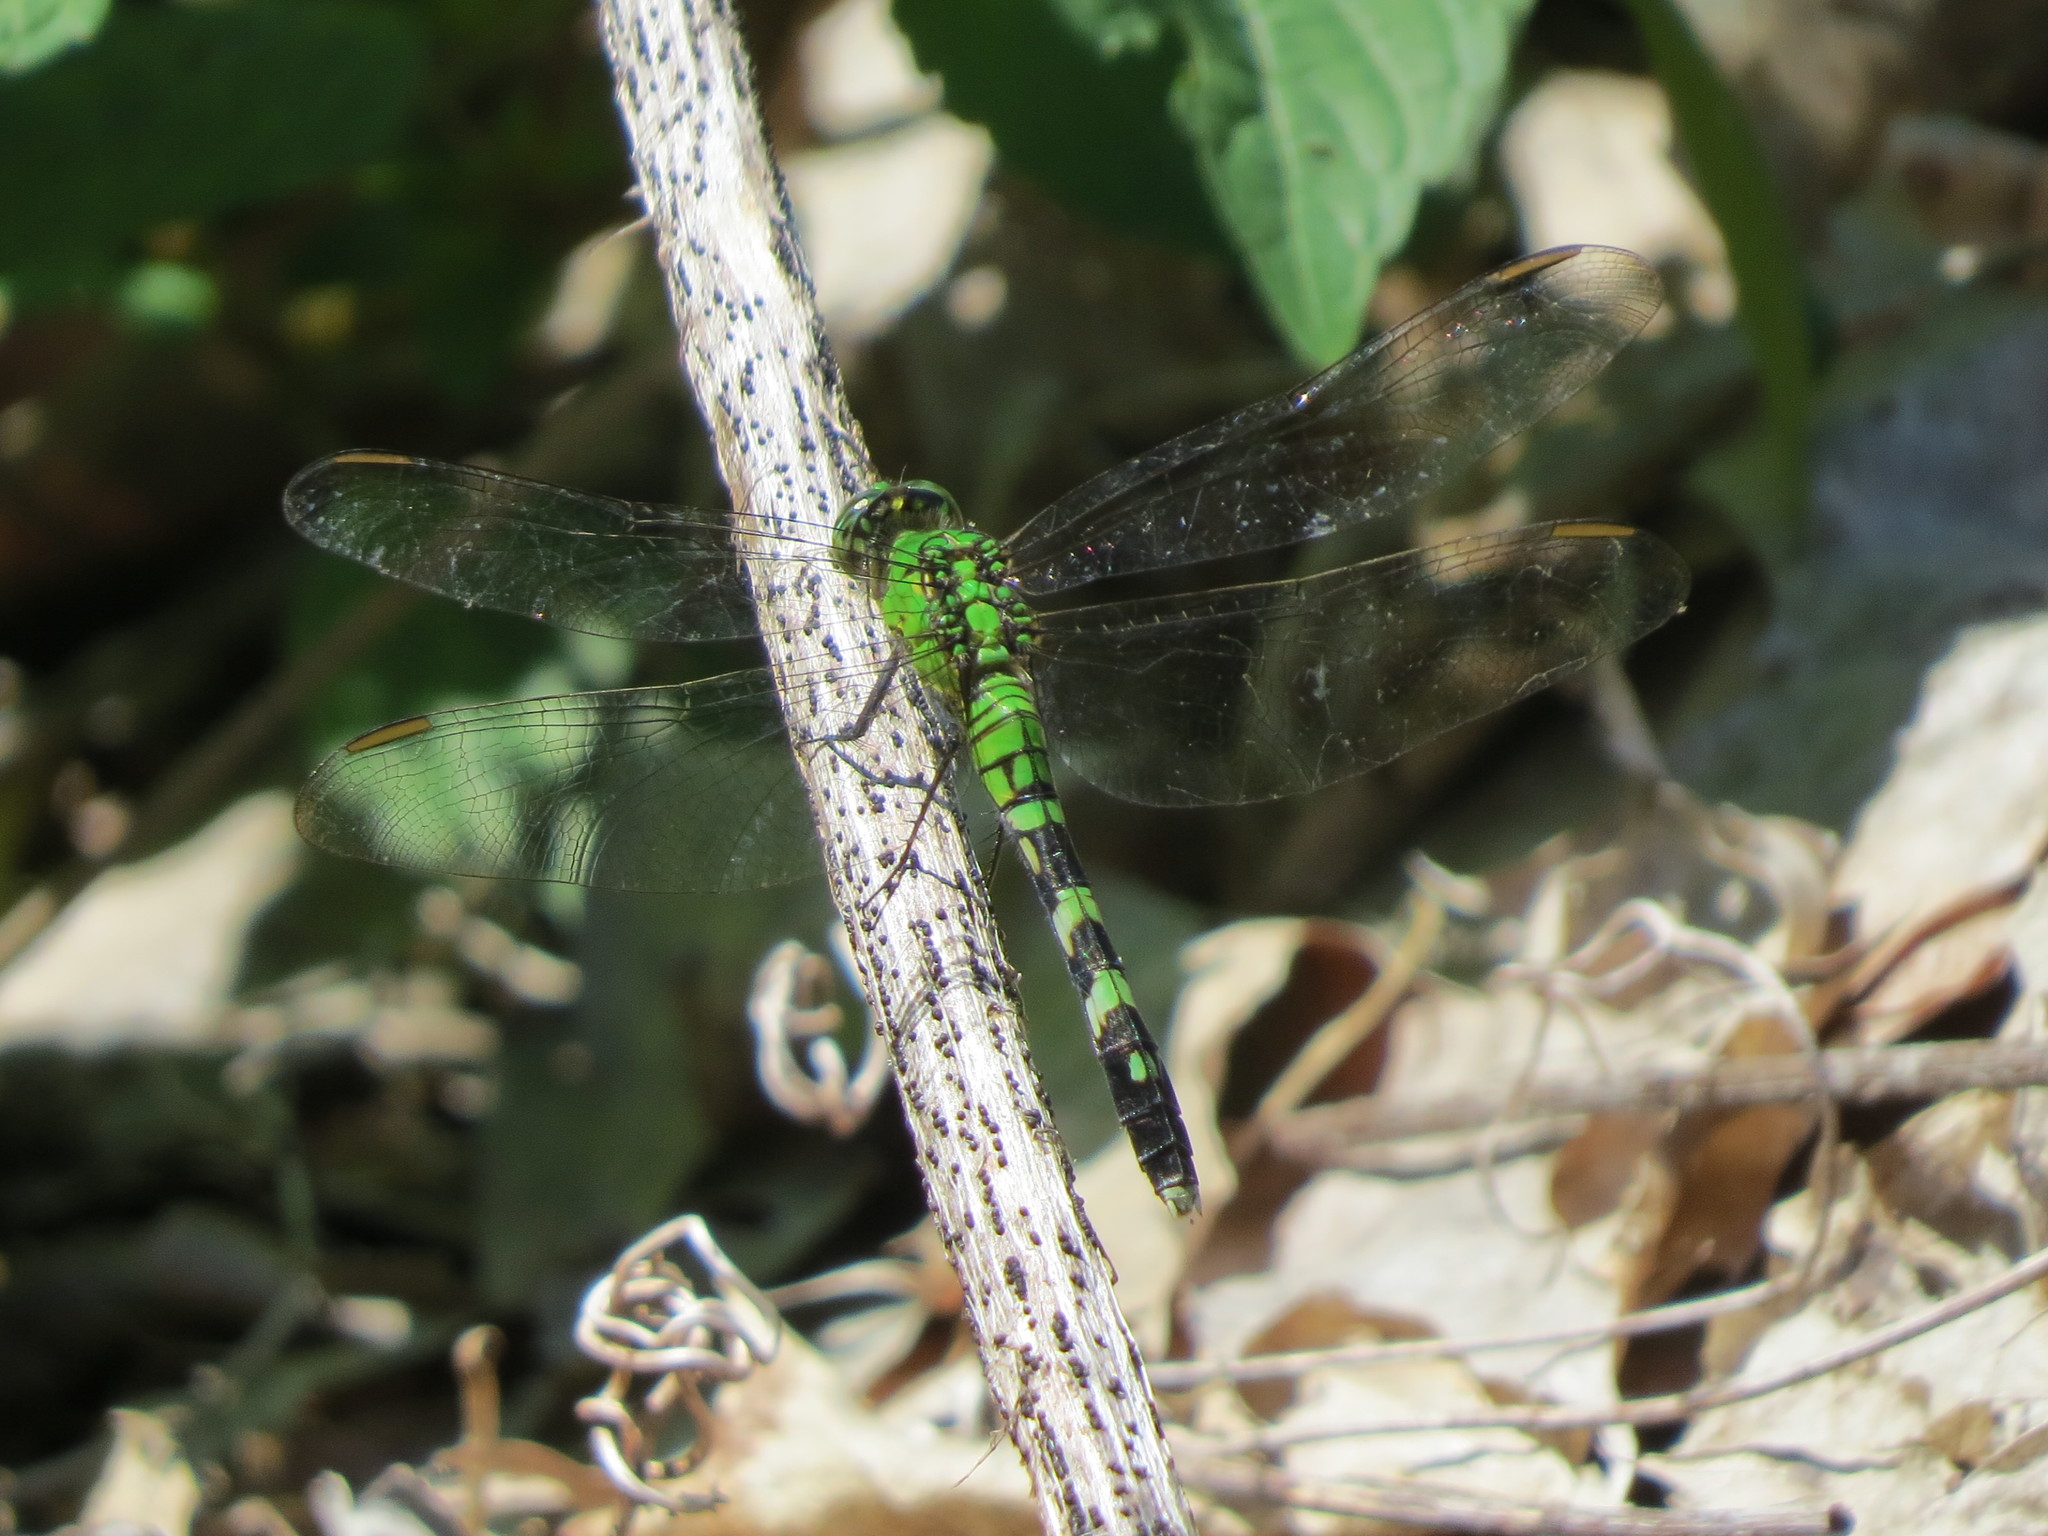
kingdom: Animalia
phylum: Arthropoda
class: Insecta
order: Odonata
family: Libellulidae
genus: Erythemis
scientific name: Erythemis simplicicollis
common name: Eastern pondhawk
